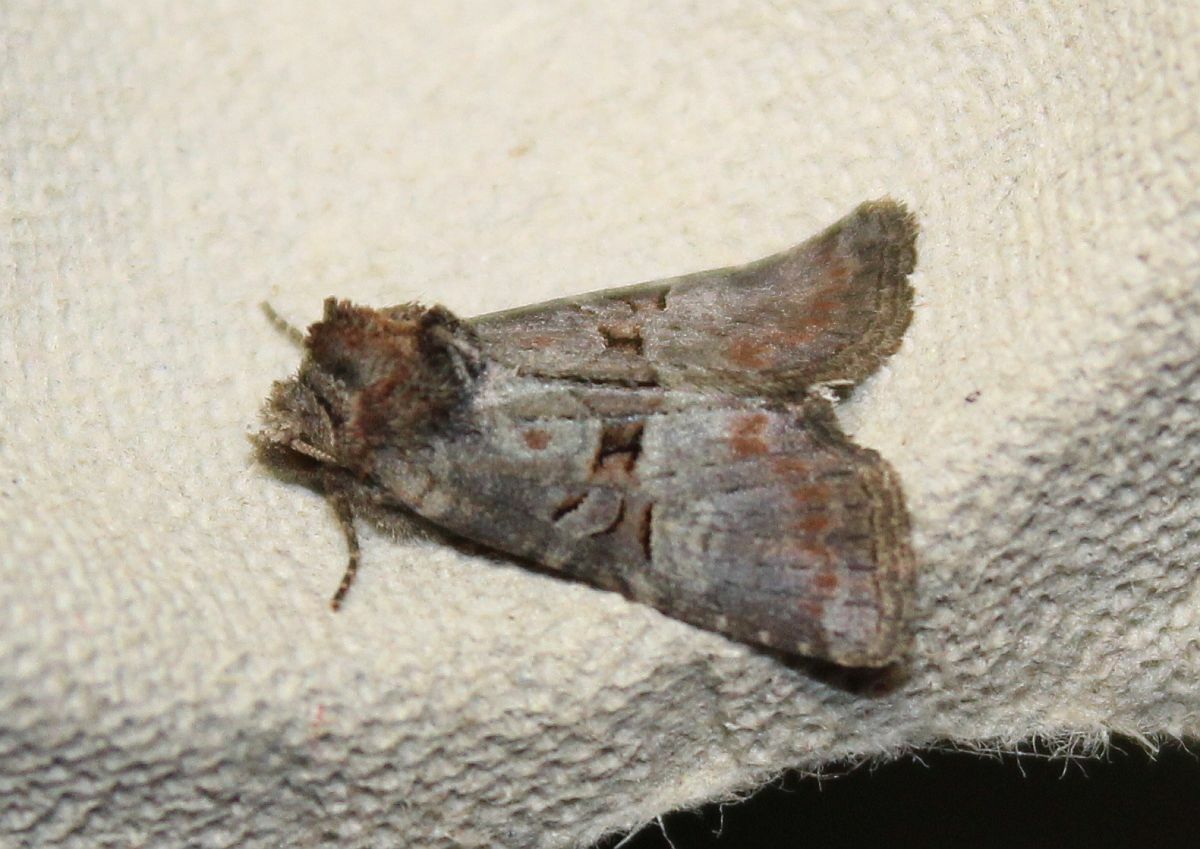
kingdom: Animalia
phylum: Arthropoda
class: Insecta
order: Lepidoptera
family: Noctuidae
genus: Litoligia
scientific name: Litoligia literosa
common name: Rosy minor
